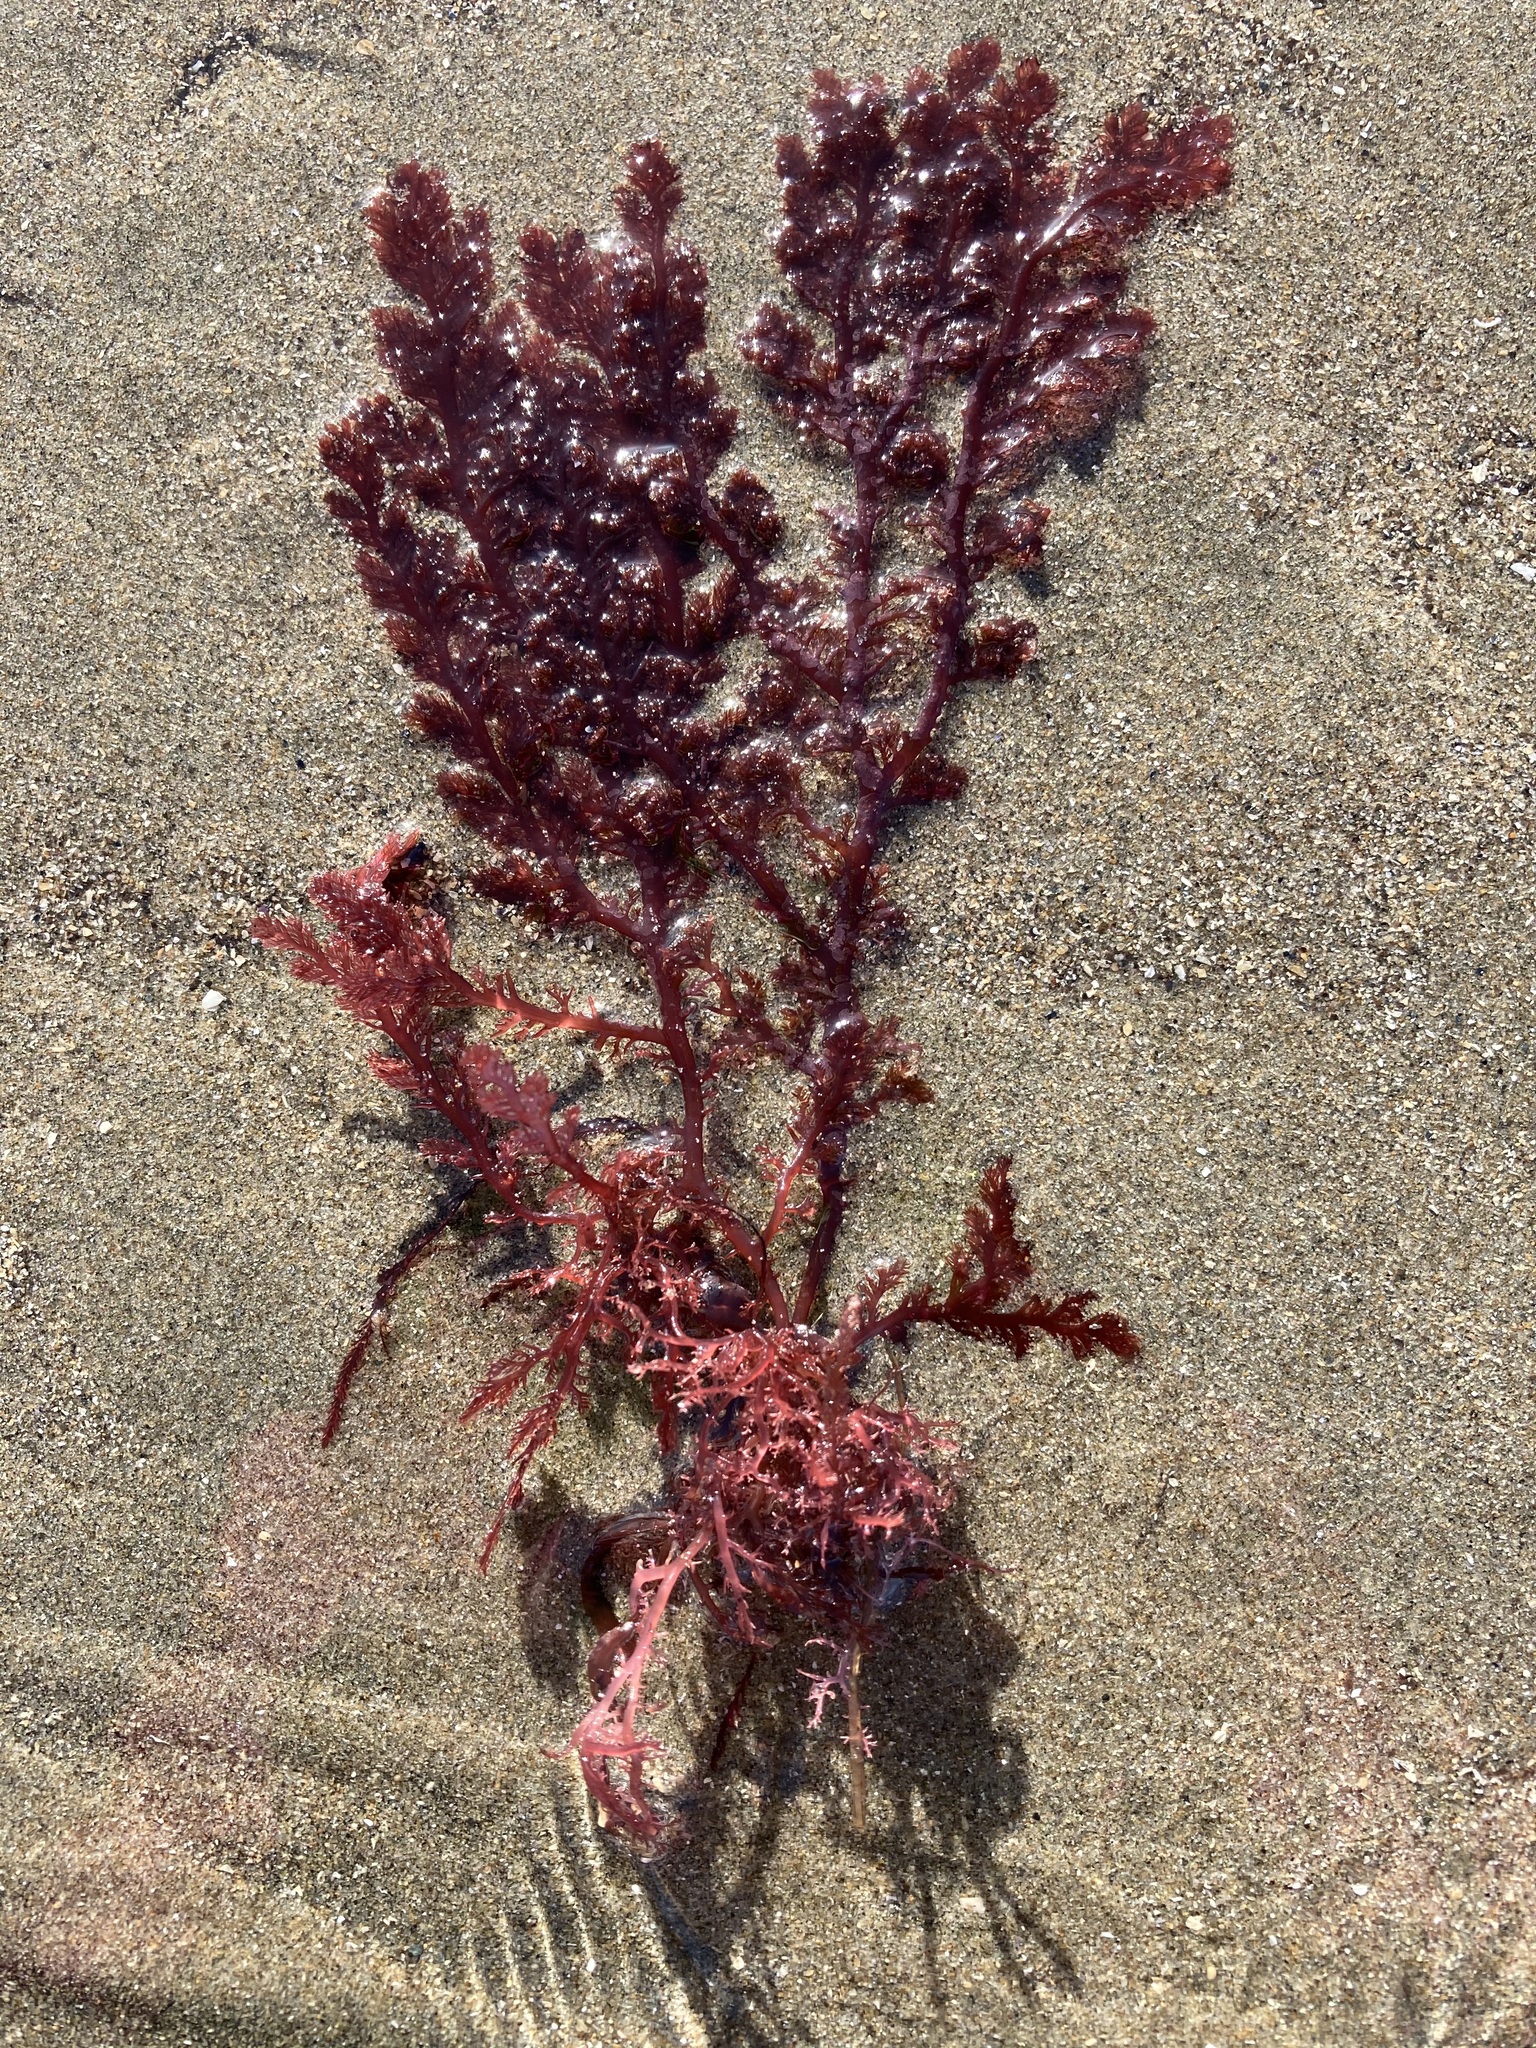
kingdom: Plantae
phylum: Rhodophyta
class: Florideophyceae
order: Plocamiales
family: Plocamiaceae
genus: Plocamium
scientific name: Plocamium cartilagineum
